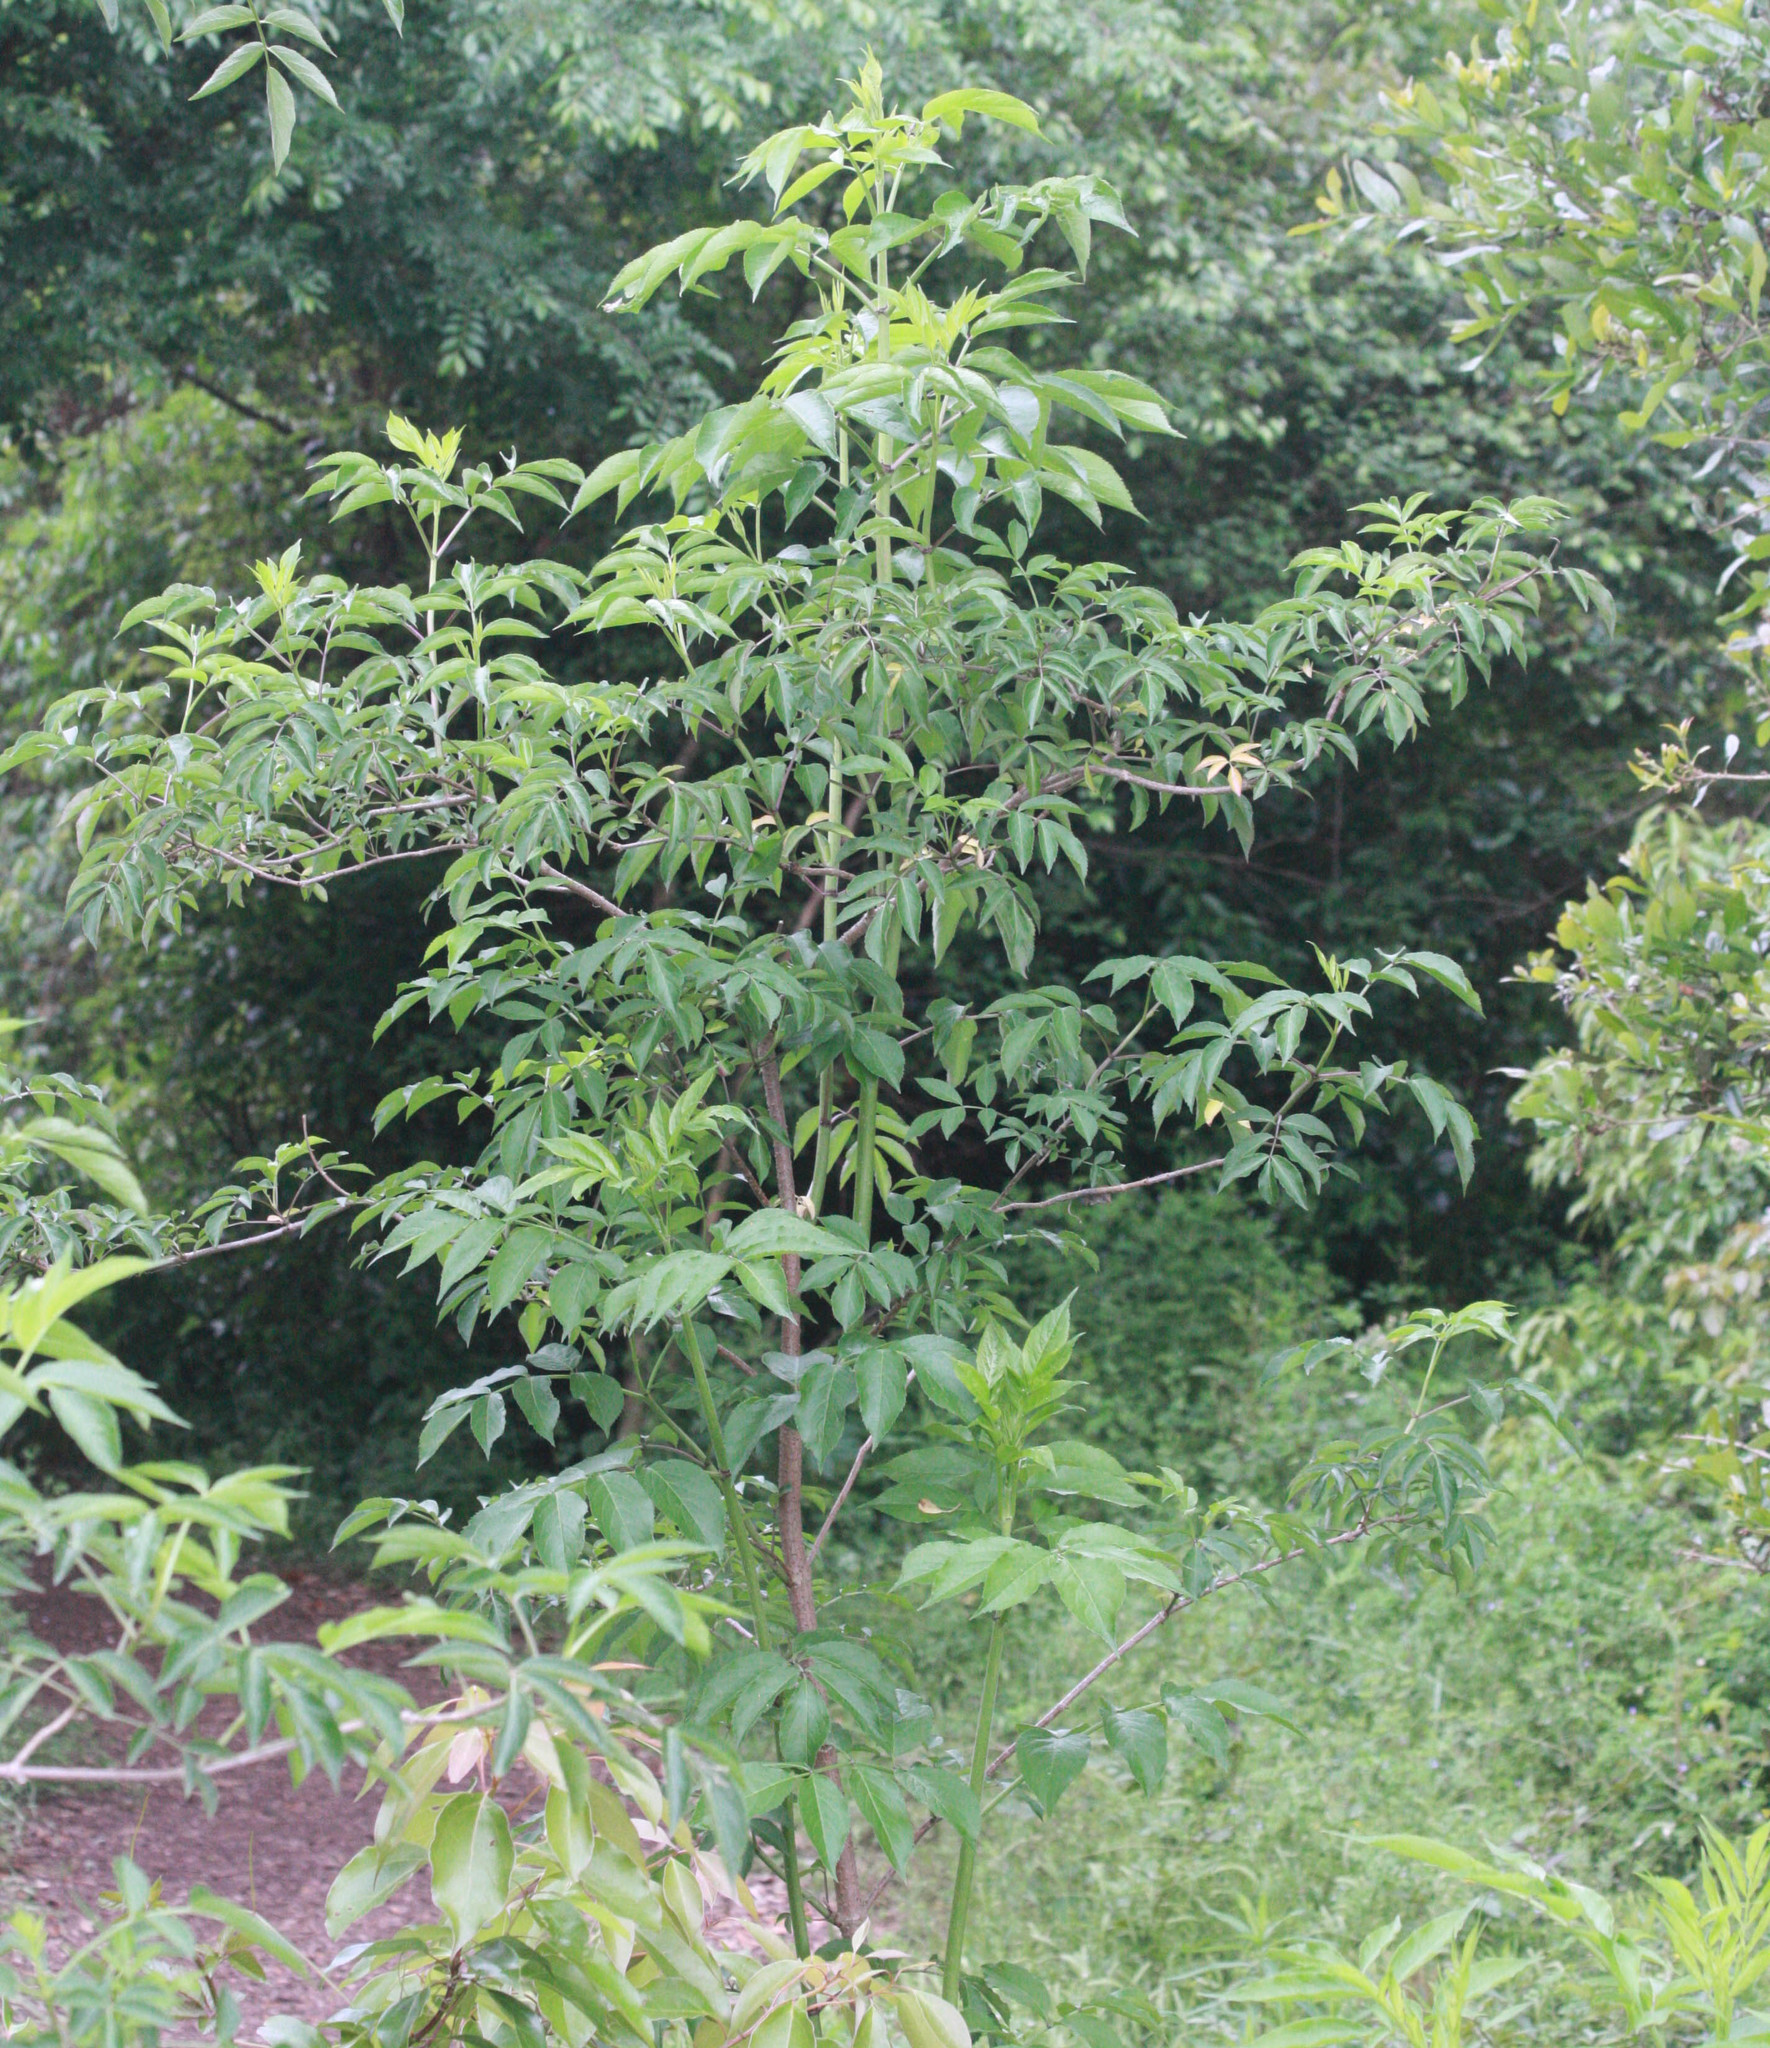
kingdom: Plantae
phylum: Tracheophyta
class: Magnoliopsida
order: Dipsacales
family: Viburnaceae
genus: Sambucus
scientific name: Sambucus canadensis
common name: American elder
